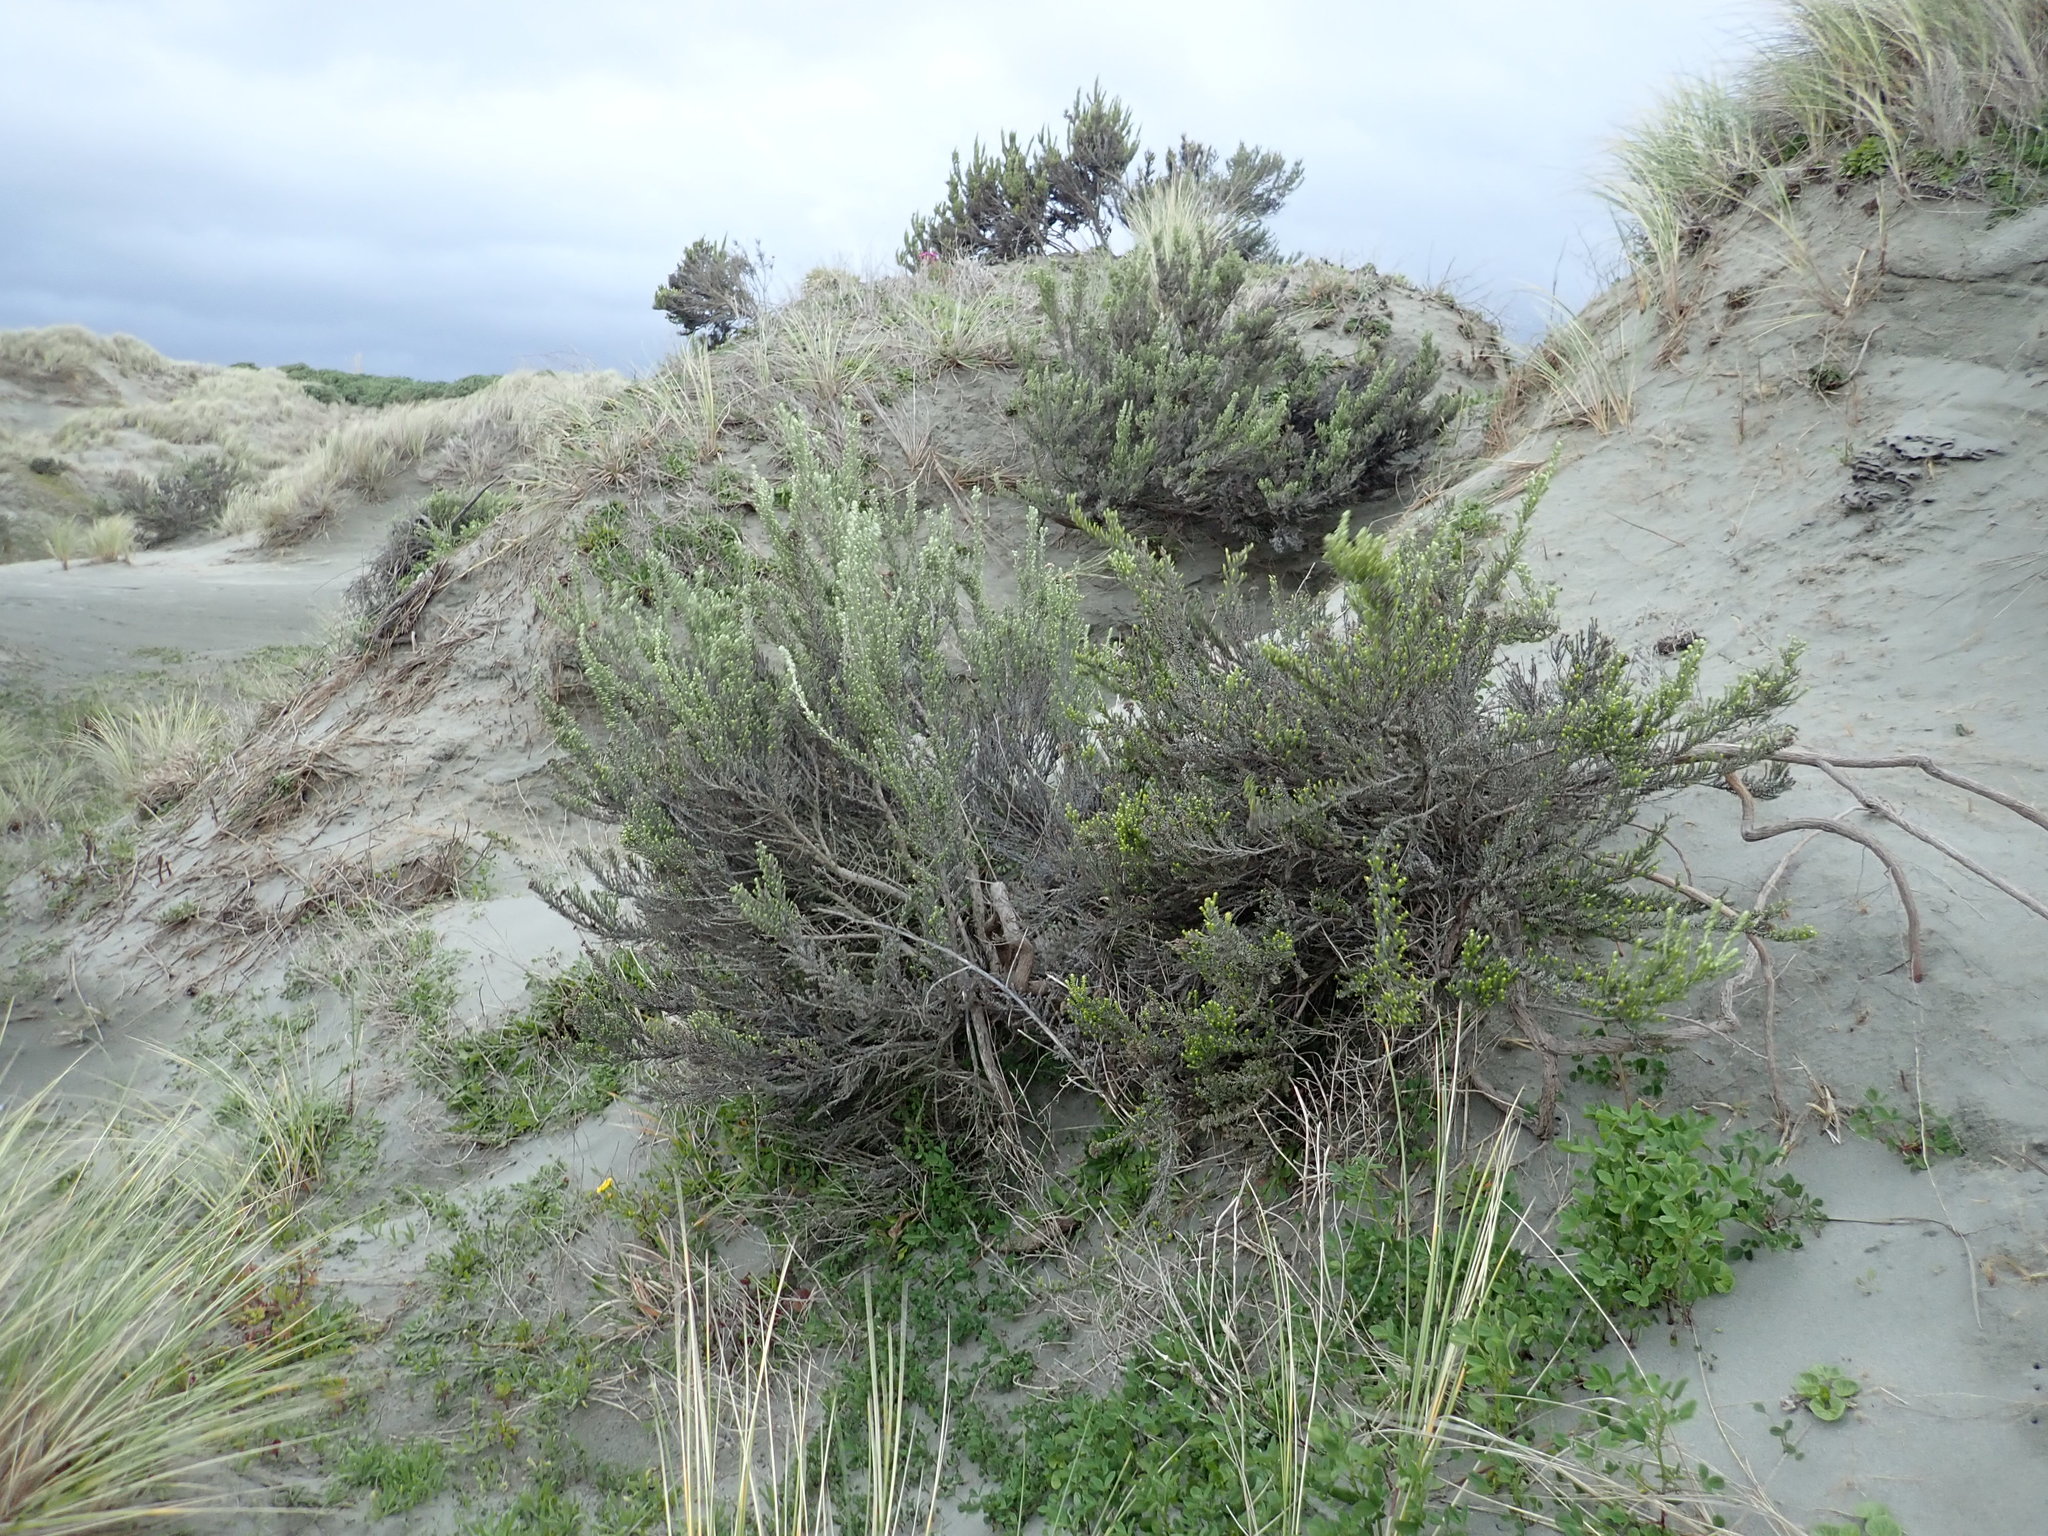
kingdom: Plantae
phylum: Tracheophyta
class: Magnoliopsida
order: Asterales
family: Asteraceae
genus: Ozothamnus
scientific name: Ozothamnus leptophyllus
